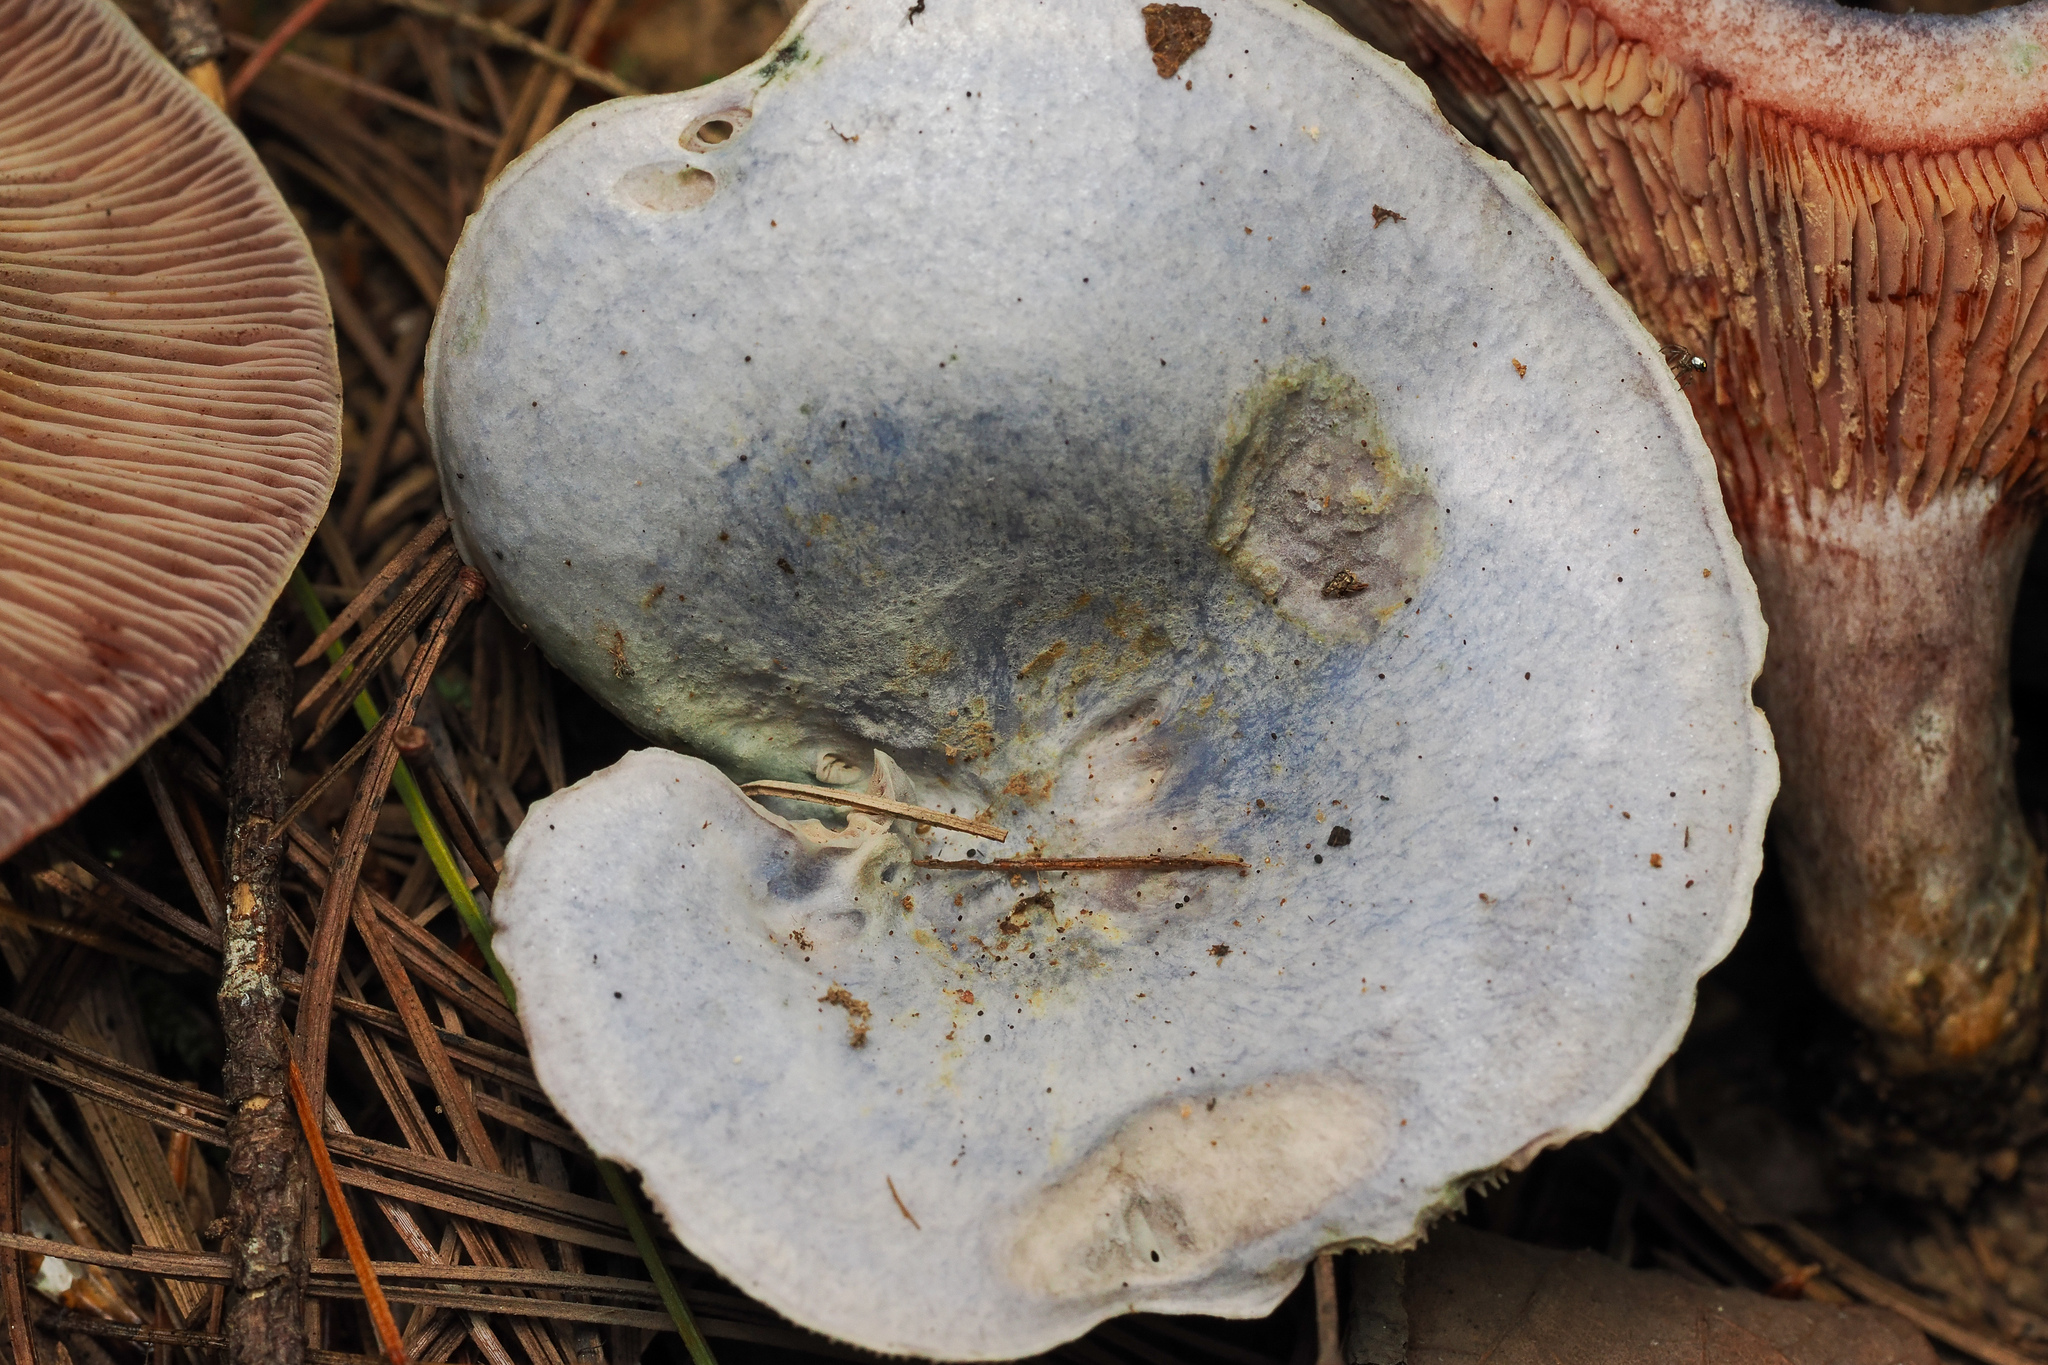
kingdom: Fungi
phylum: Basidiomycota
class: Agaricomycetes
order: Russulales
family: Russulaceae
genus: Lactarius
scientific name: Lactarius paradoxus
